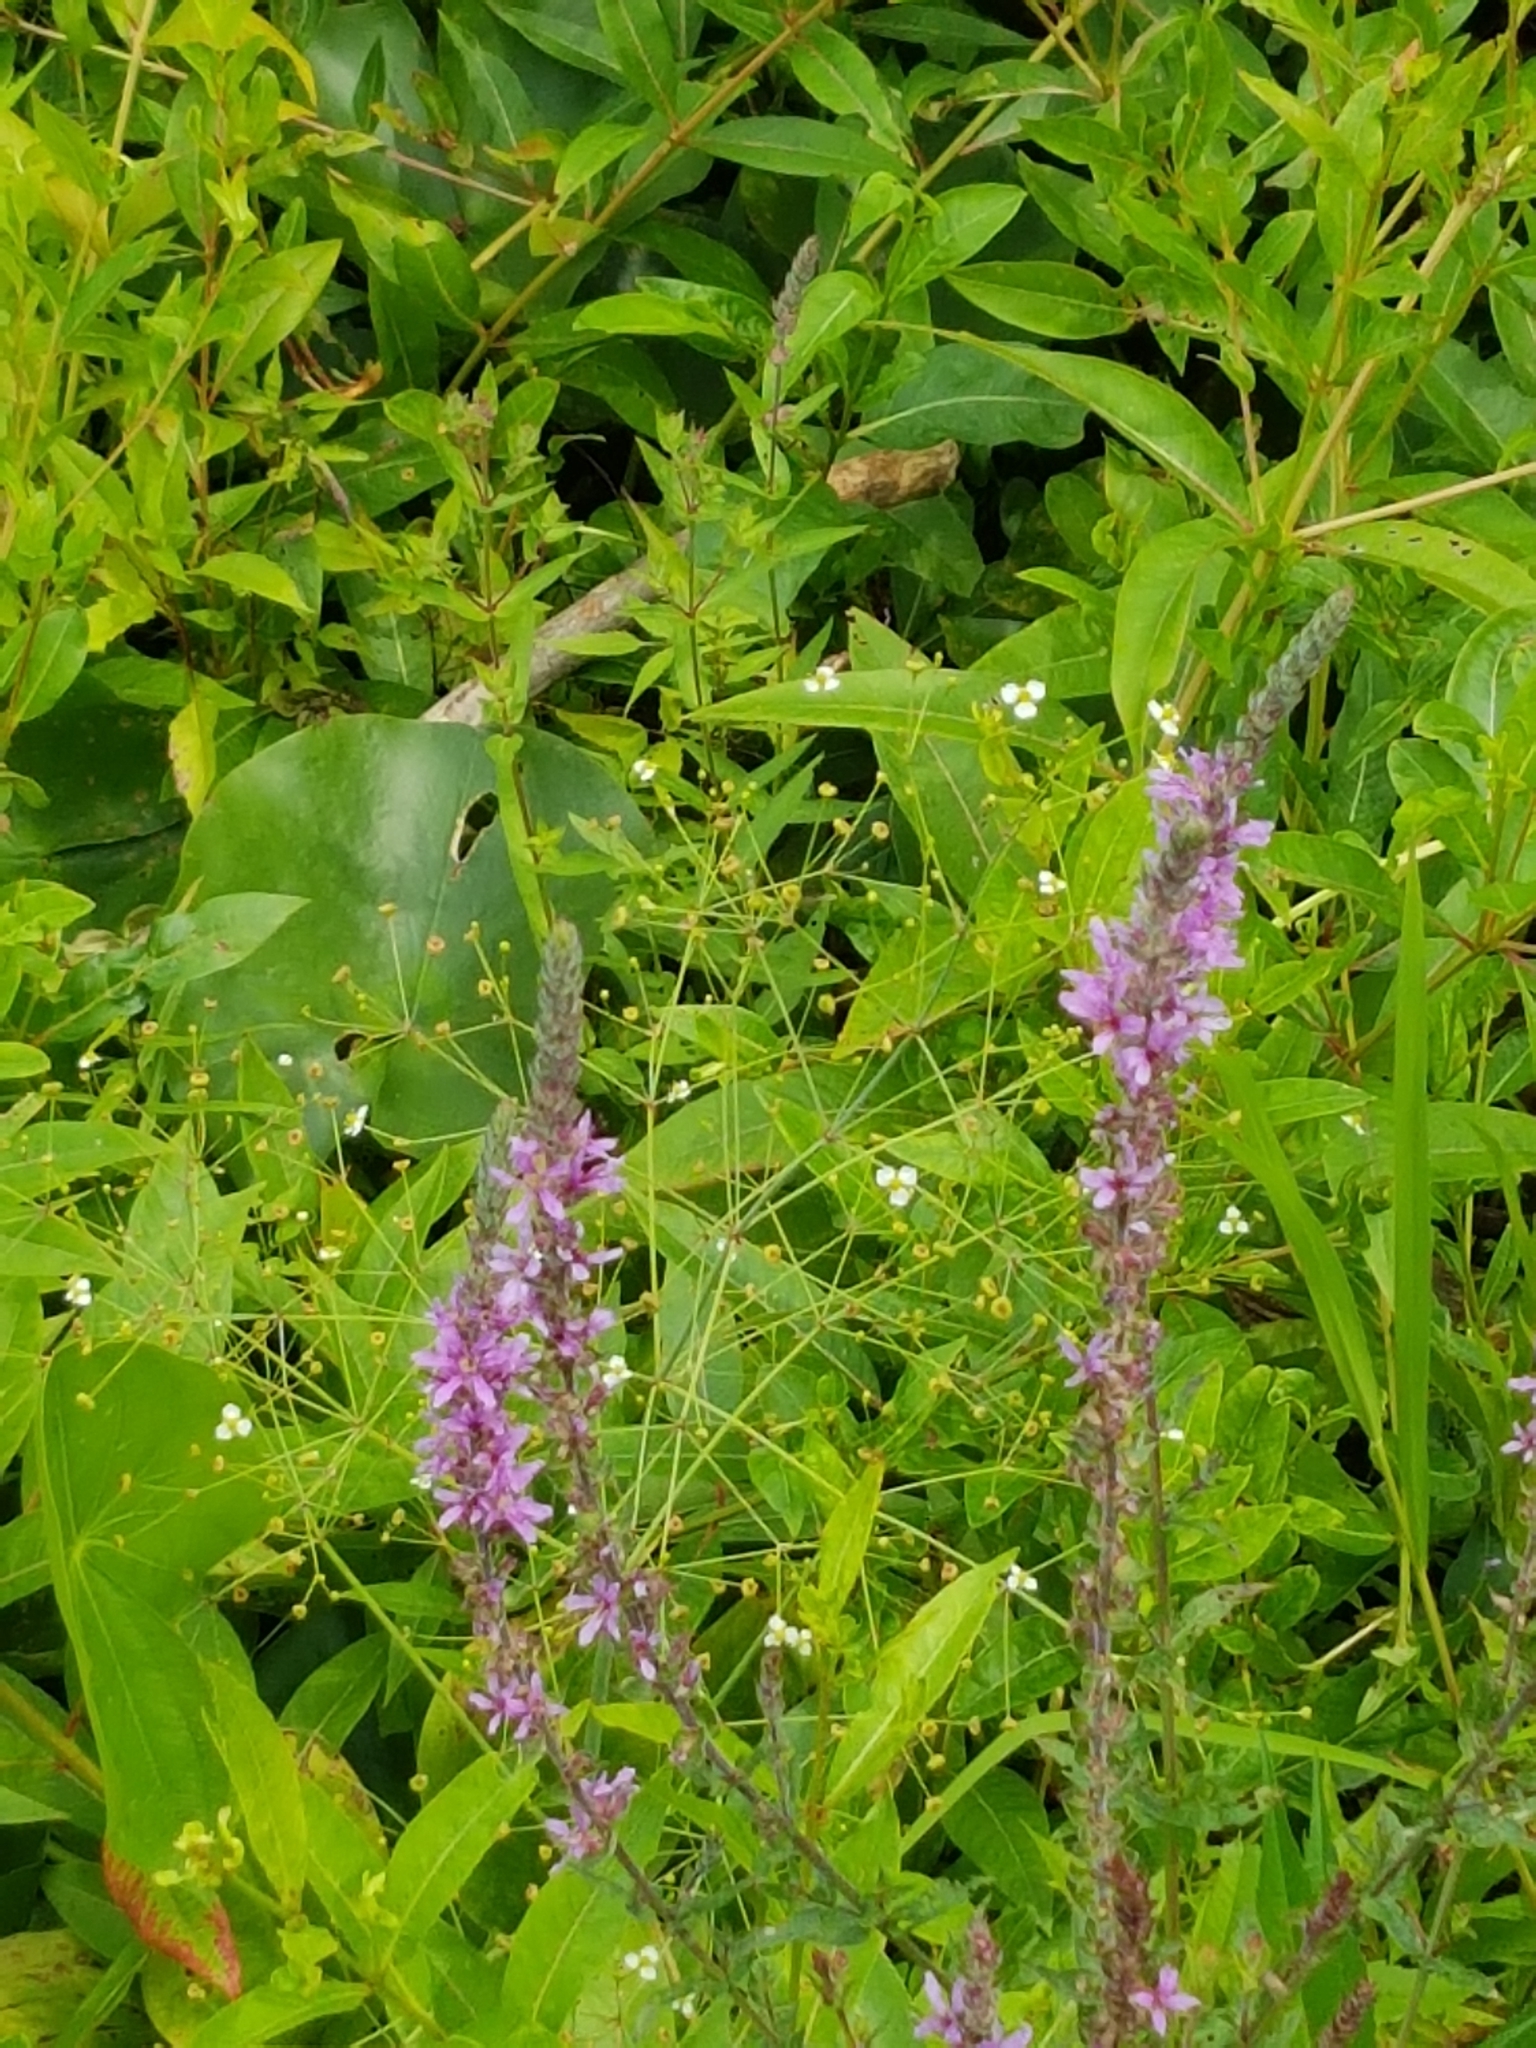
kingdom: Plantae
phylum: Tracheophyta
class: Liliopsida
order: Alismatales
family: Alismataceae
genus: Alisma
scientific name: Alisma triviale
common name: Northern water-plantain
